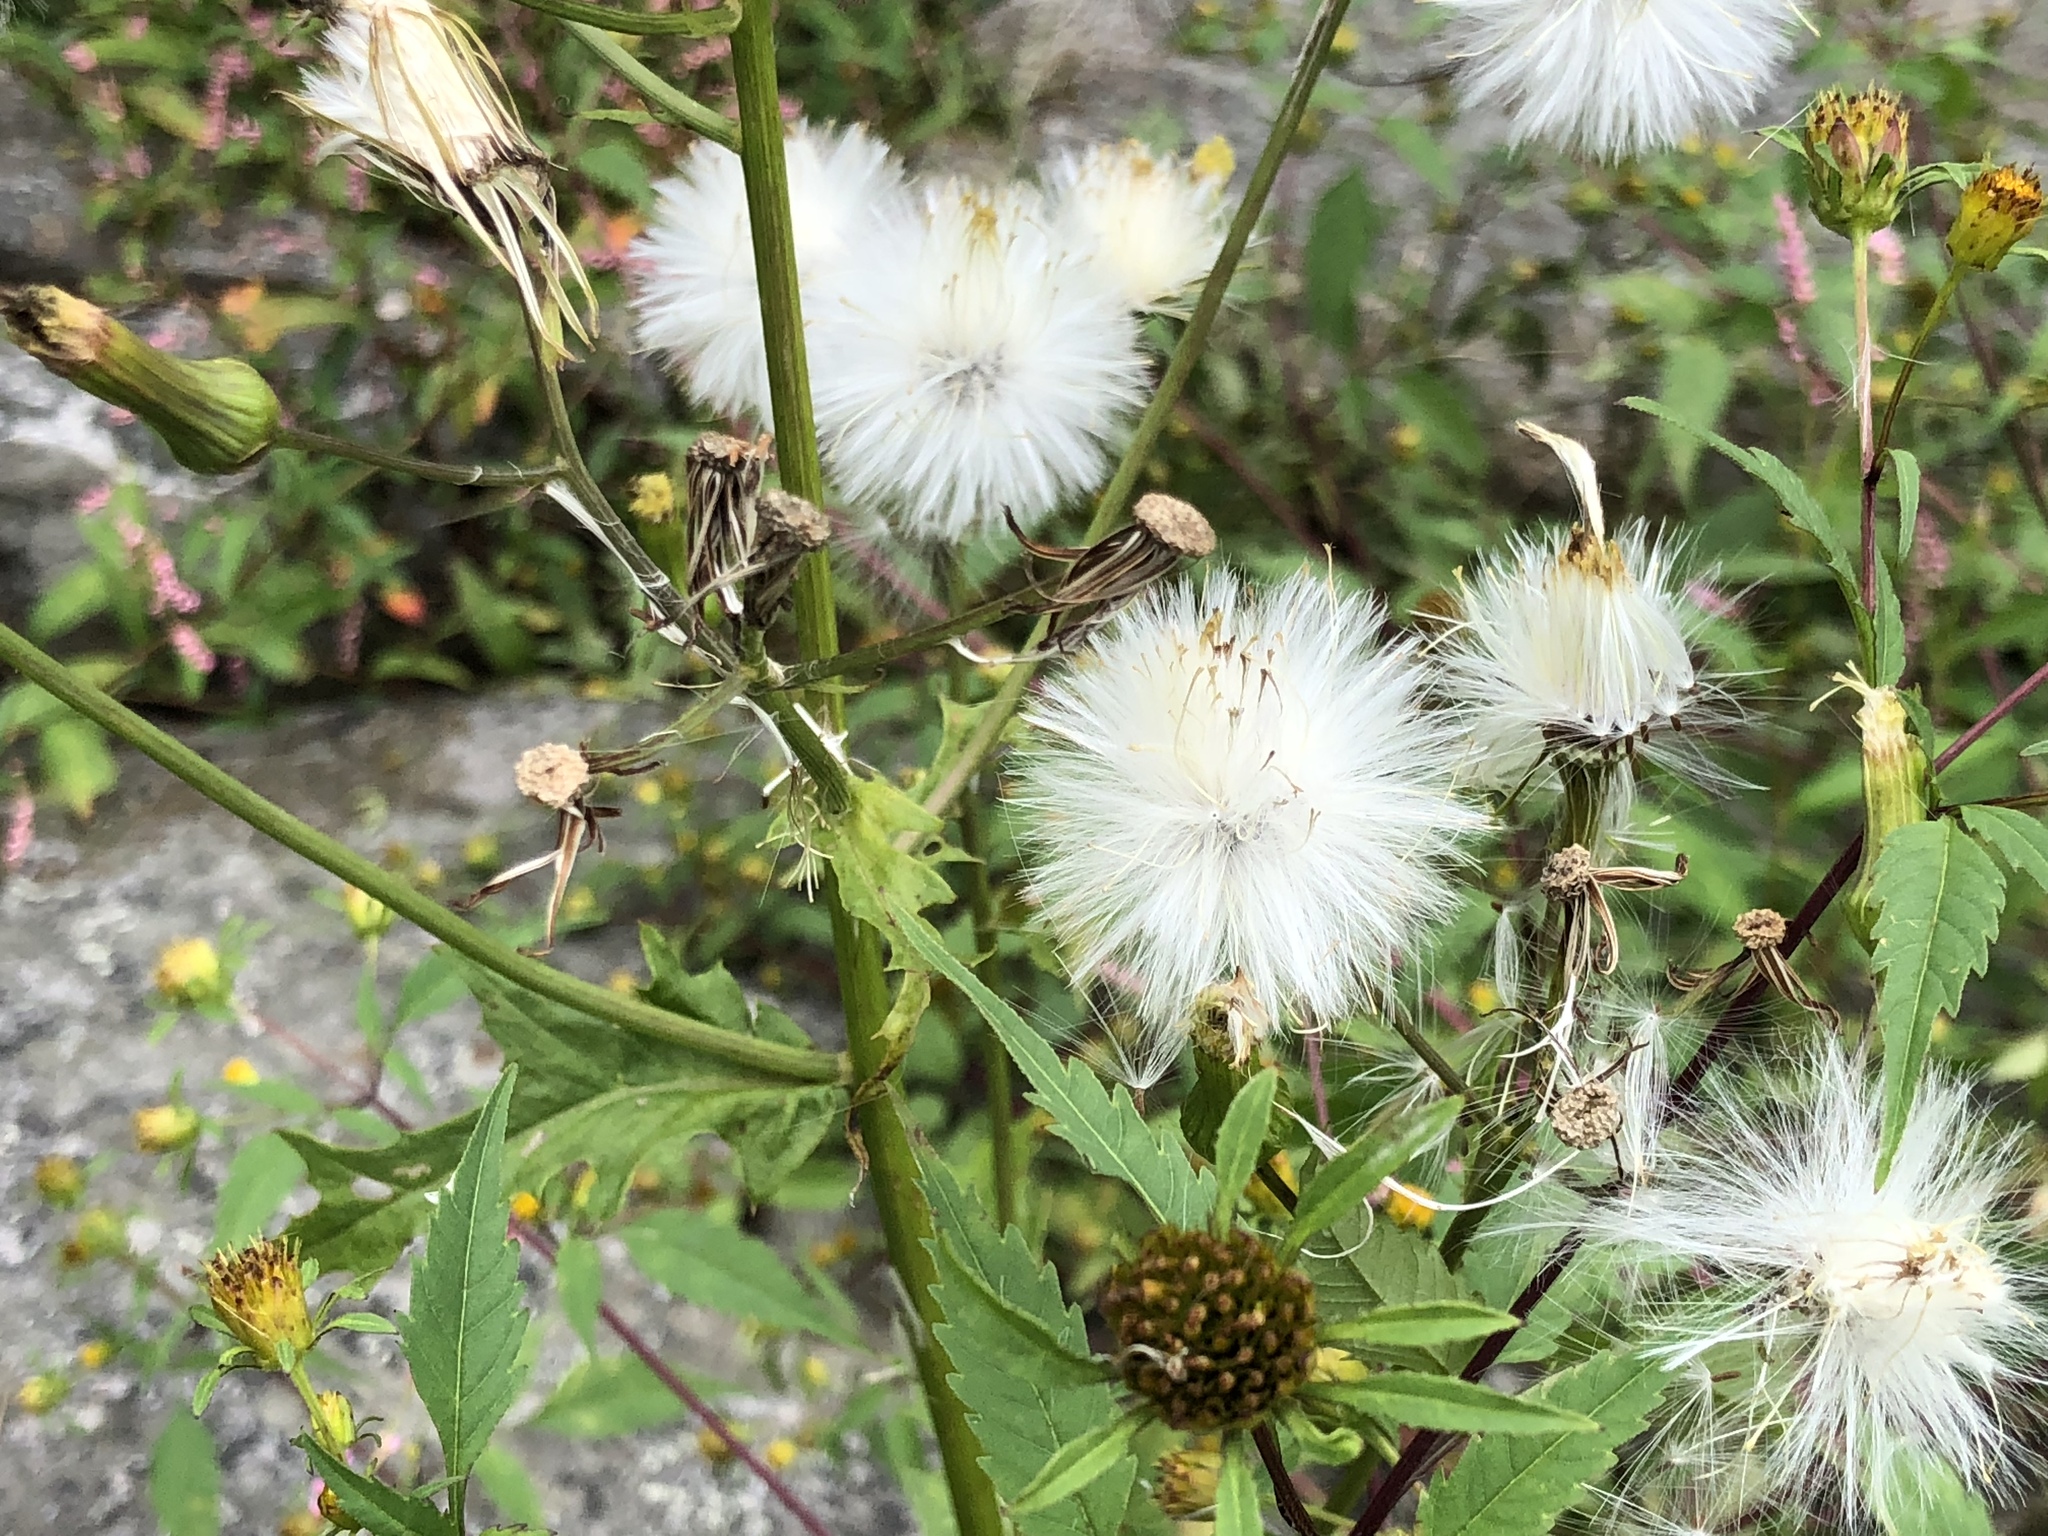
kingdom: Plantae
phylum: Tracheophyta
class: Magnoliopsida
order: Asterales
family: Asteraceae
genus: Erechtites
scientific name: Erechtites hieraciifolius
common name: American burnweed
